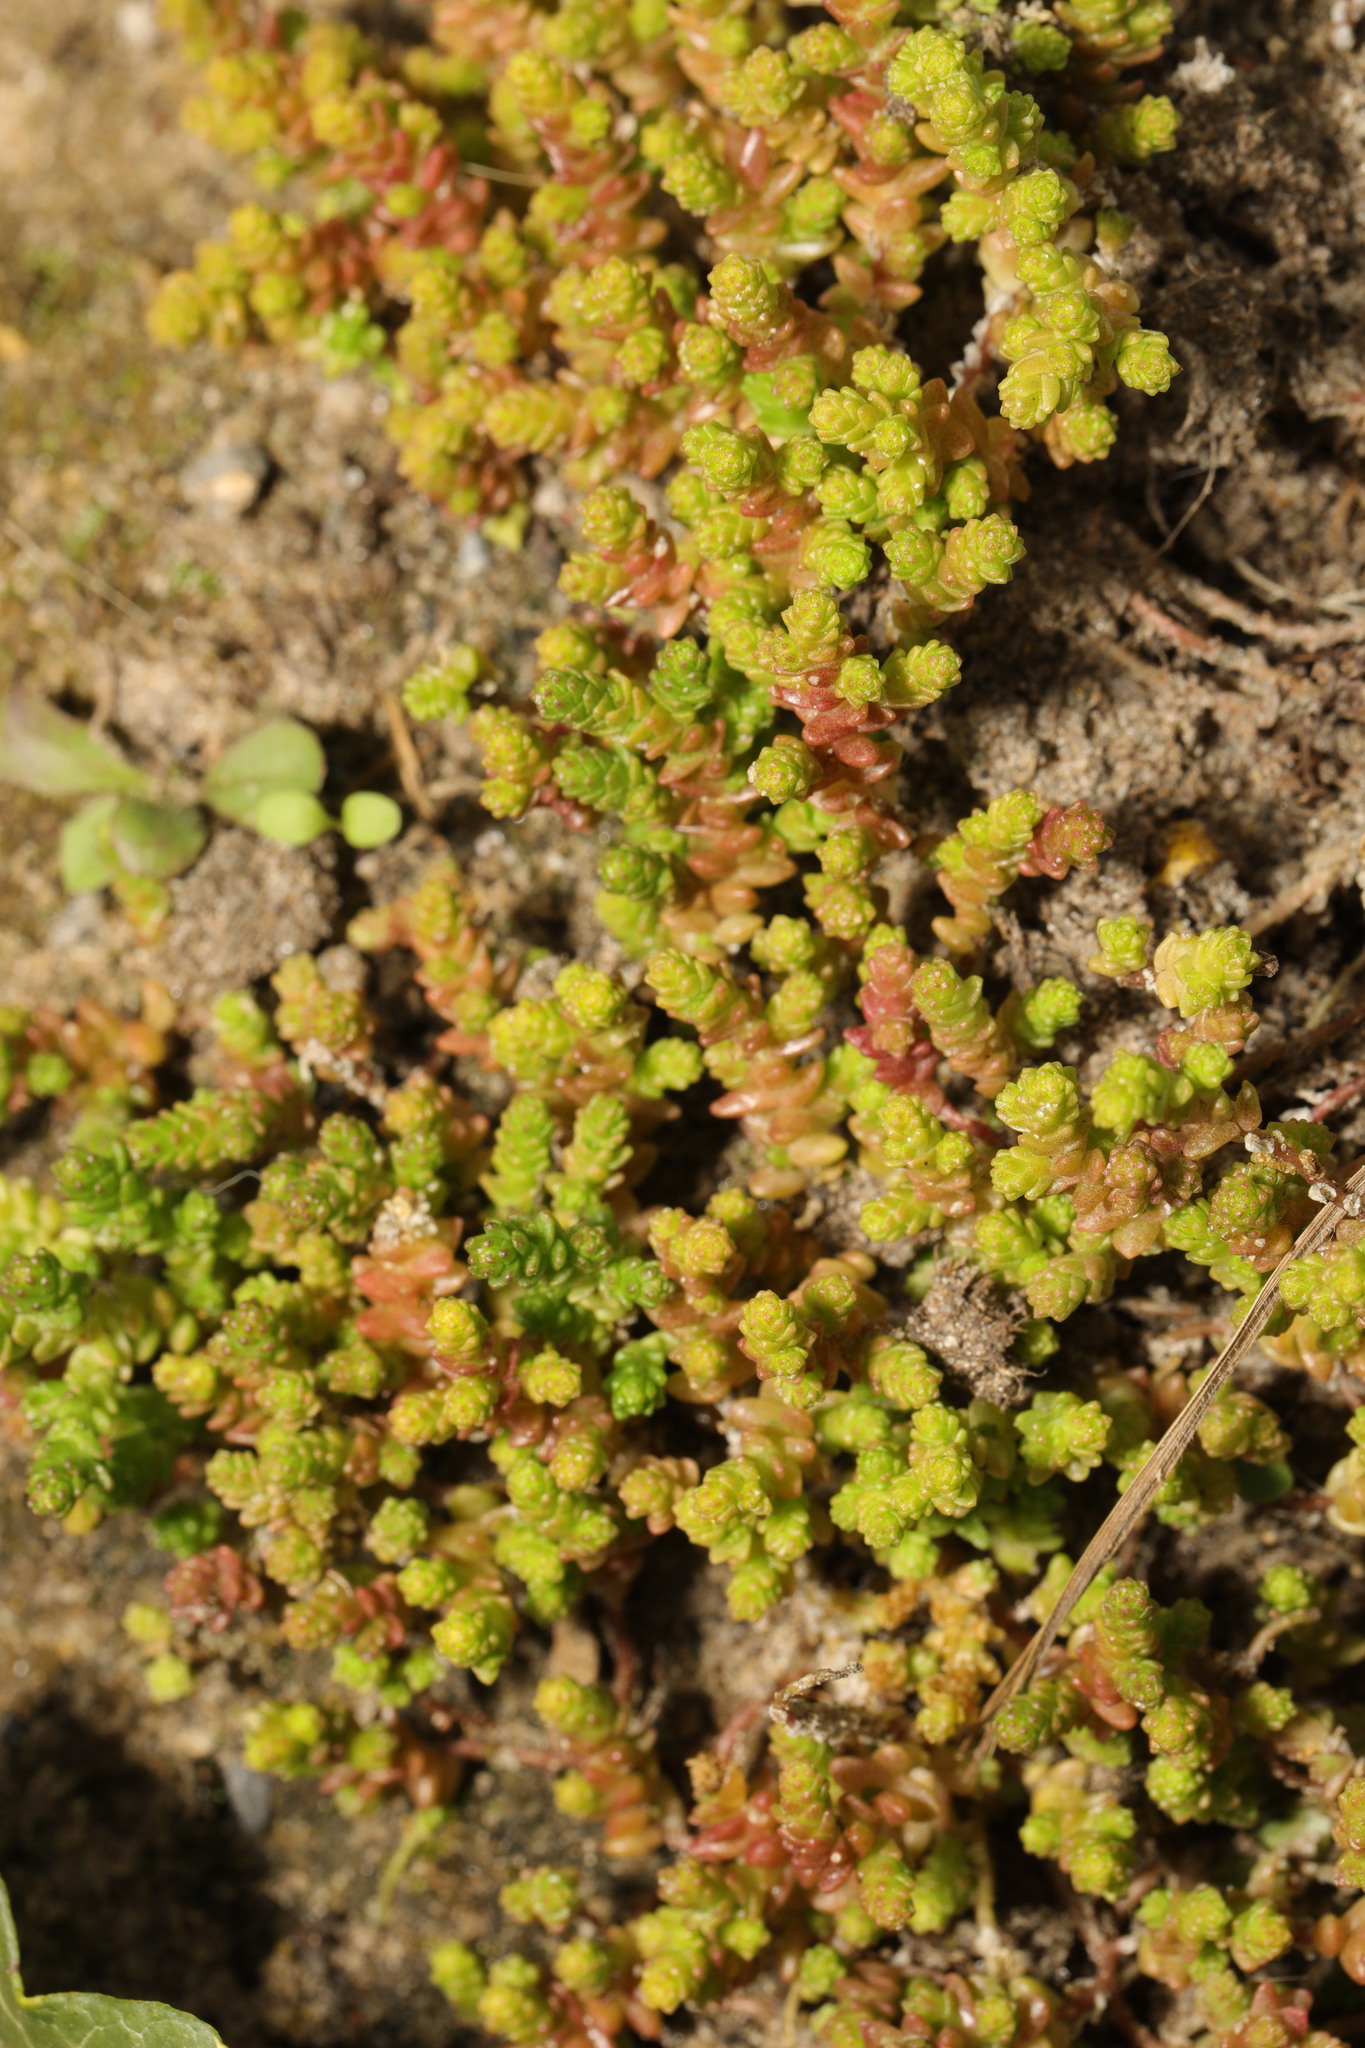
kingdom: Plantae
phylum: Tracheophyta
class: Magnoliopsida
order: Saxifragales
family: Crassulaceae
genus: Sedum
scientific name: Sedum acre
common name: Biting stonecrop
